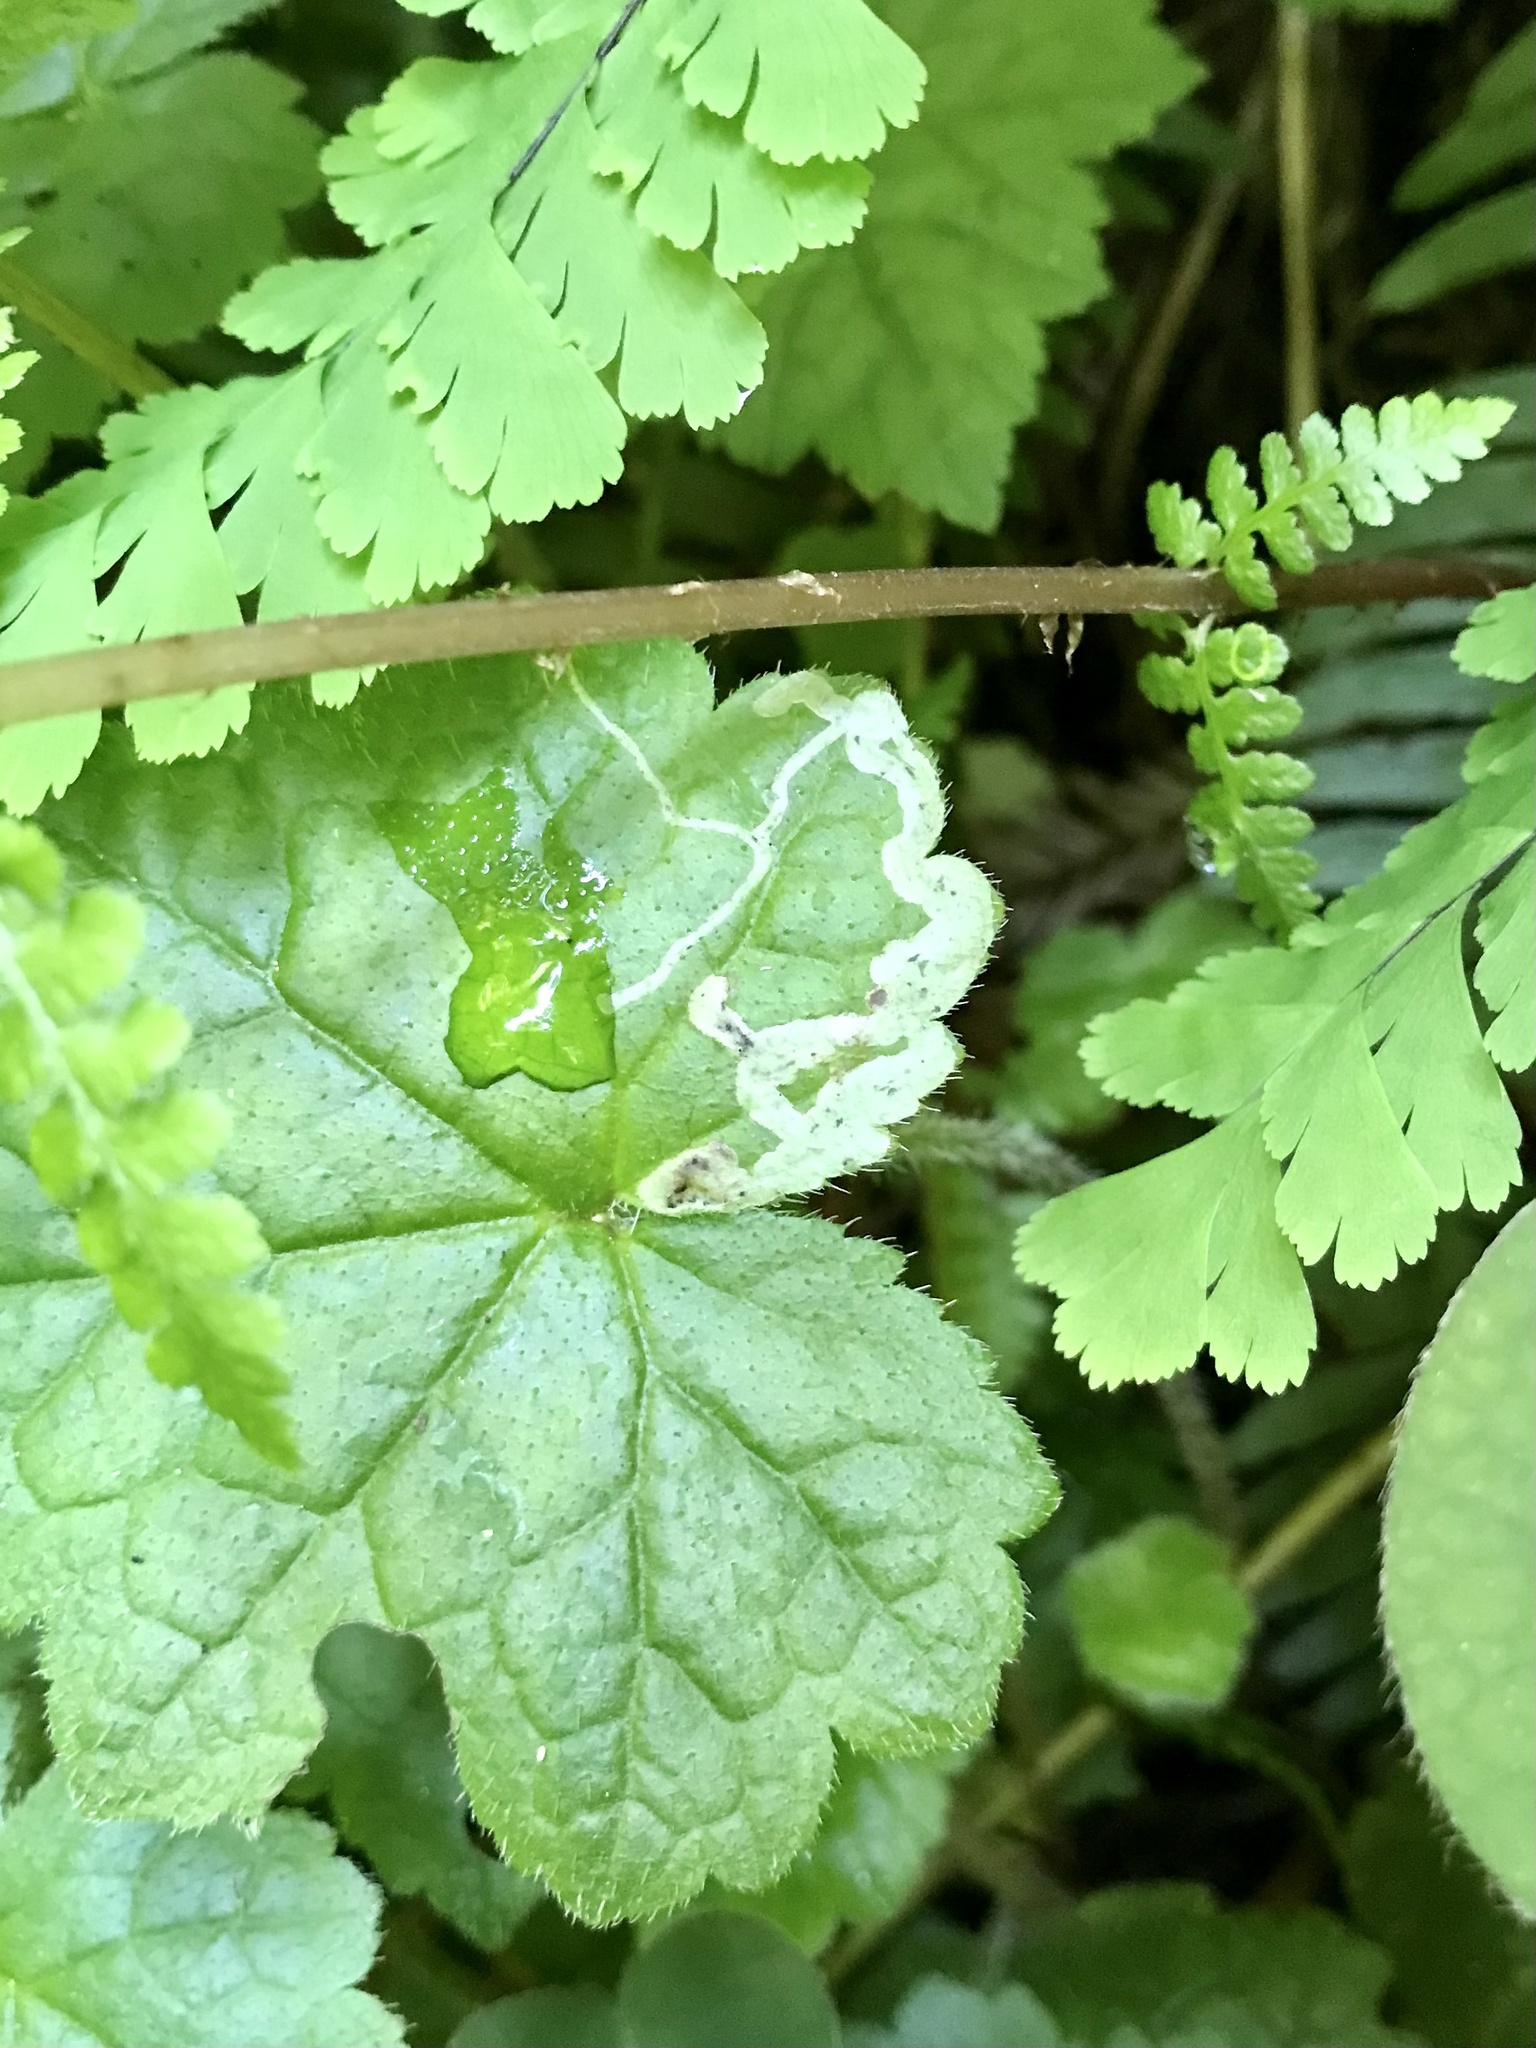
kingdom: Animalia
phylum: Arthropoda
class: Insecta
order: Diptera
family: Agromyzidae
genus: Phytomyza
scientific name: Phytomyza tiarellae
